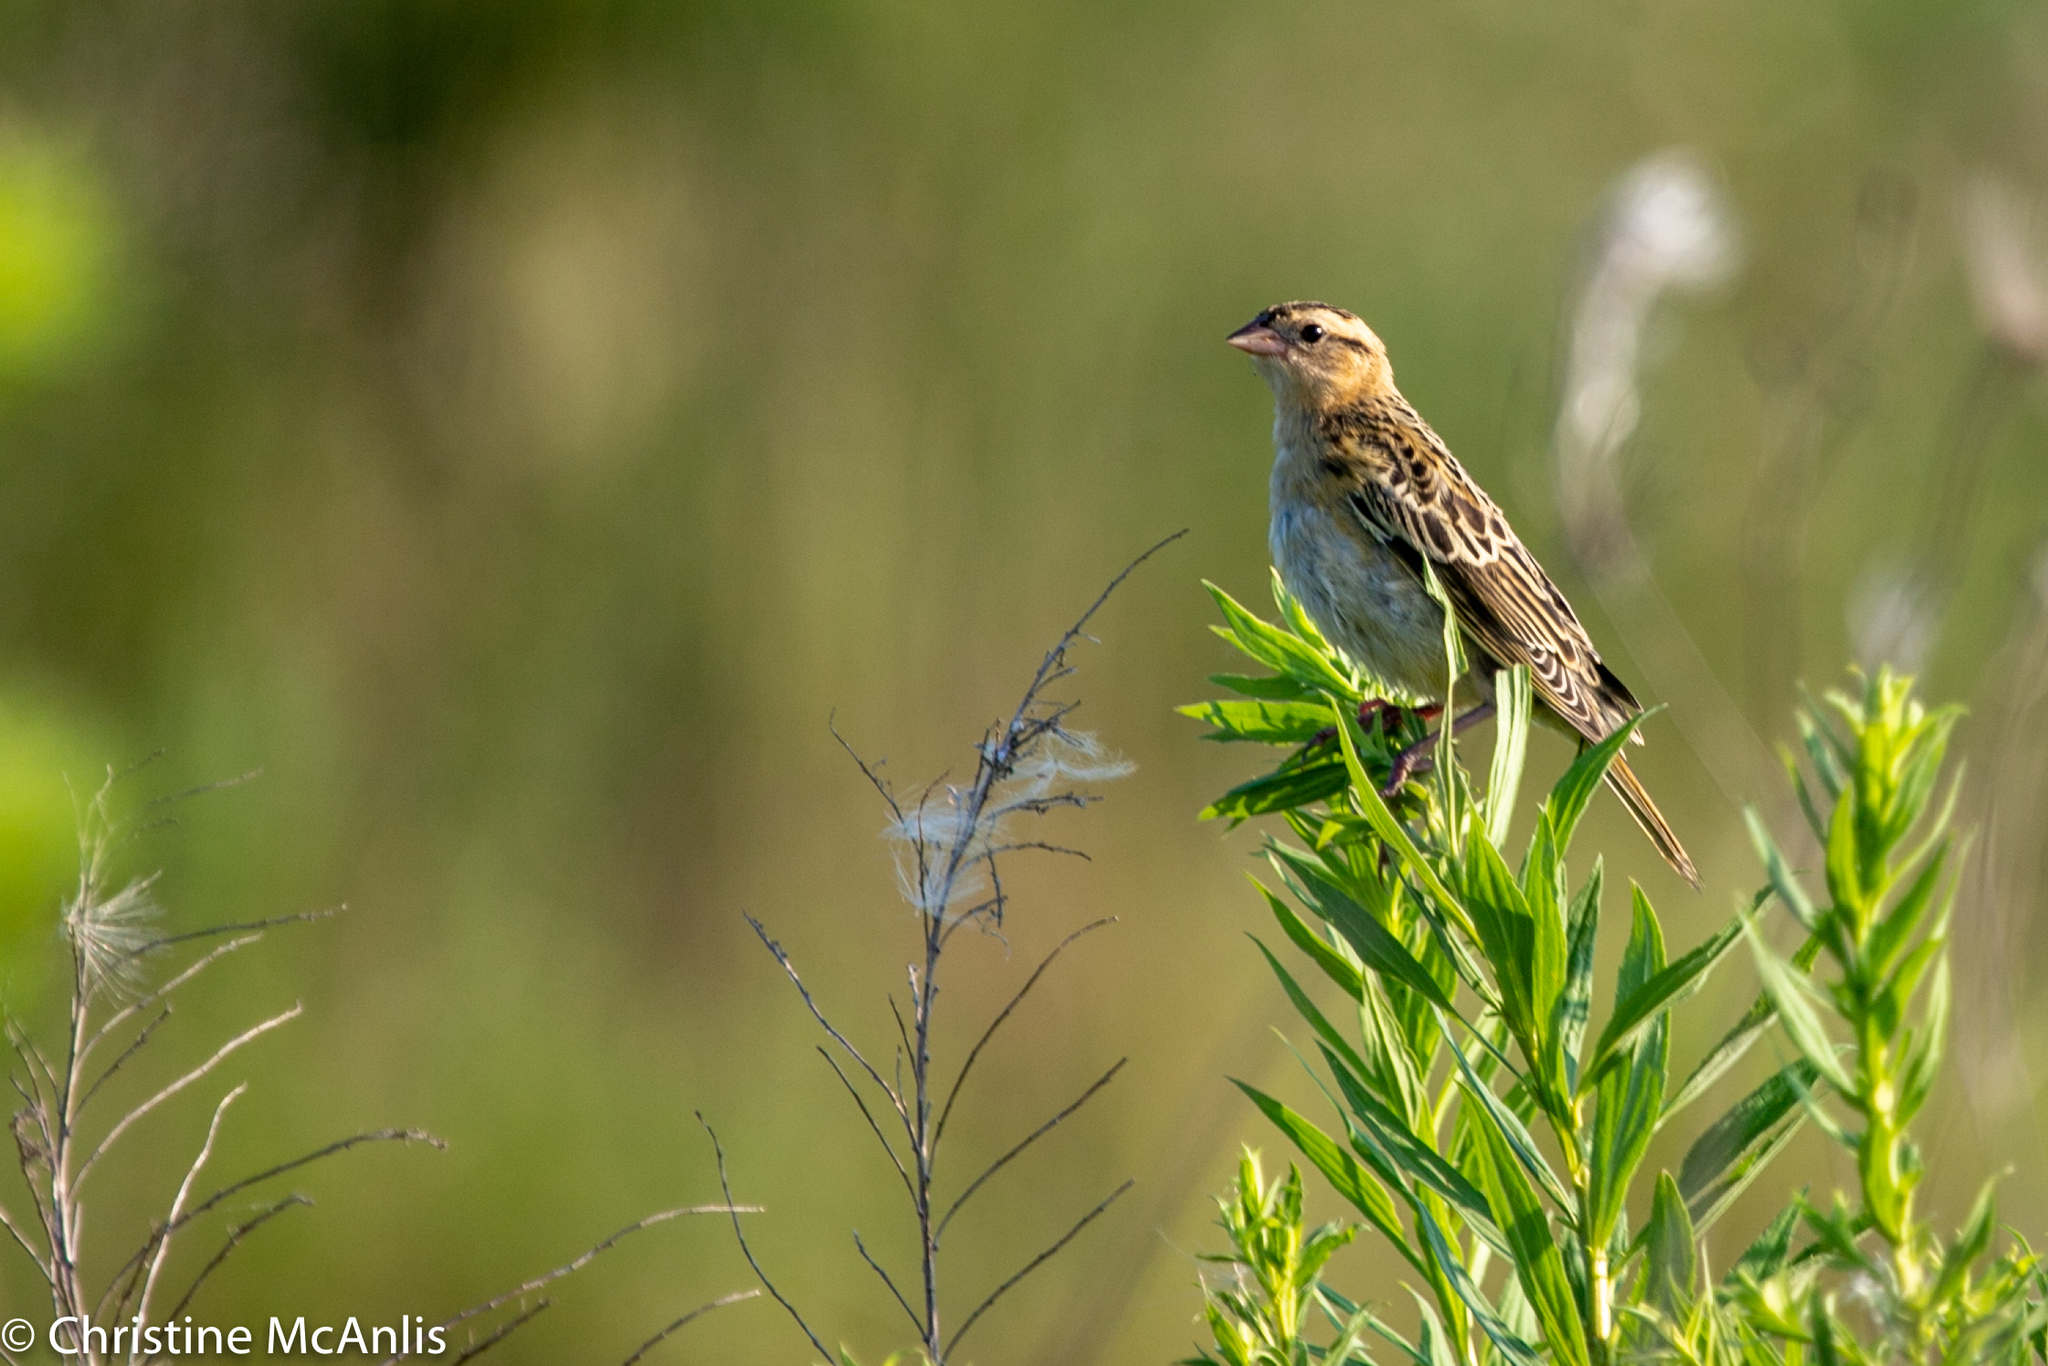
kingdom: Animalia
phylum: Chordata
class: Aves
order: Passeriformes
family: Icteridae
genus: Dolichonyx
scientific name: Dolichonyx oryzivorus
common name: Bobolink
